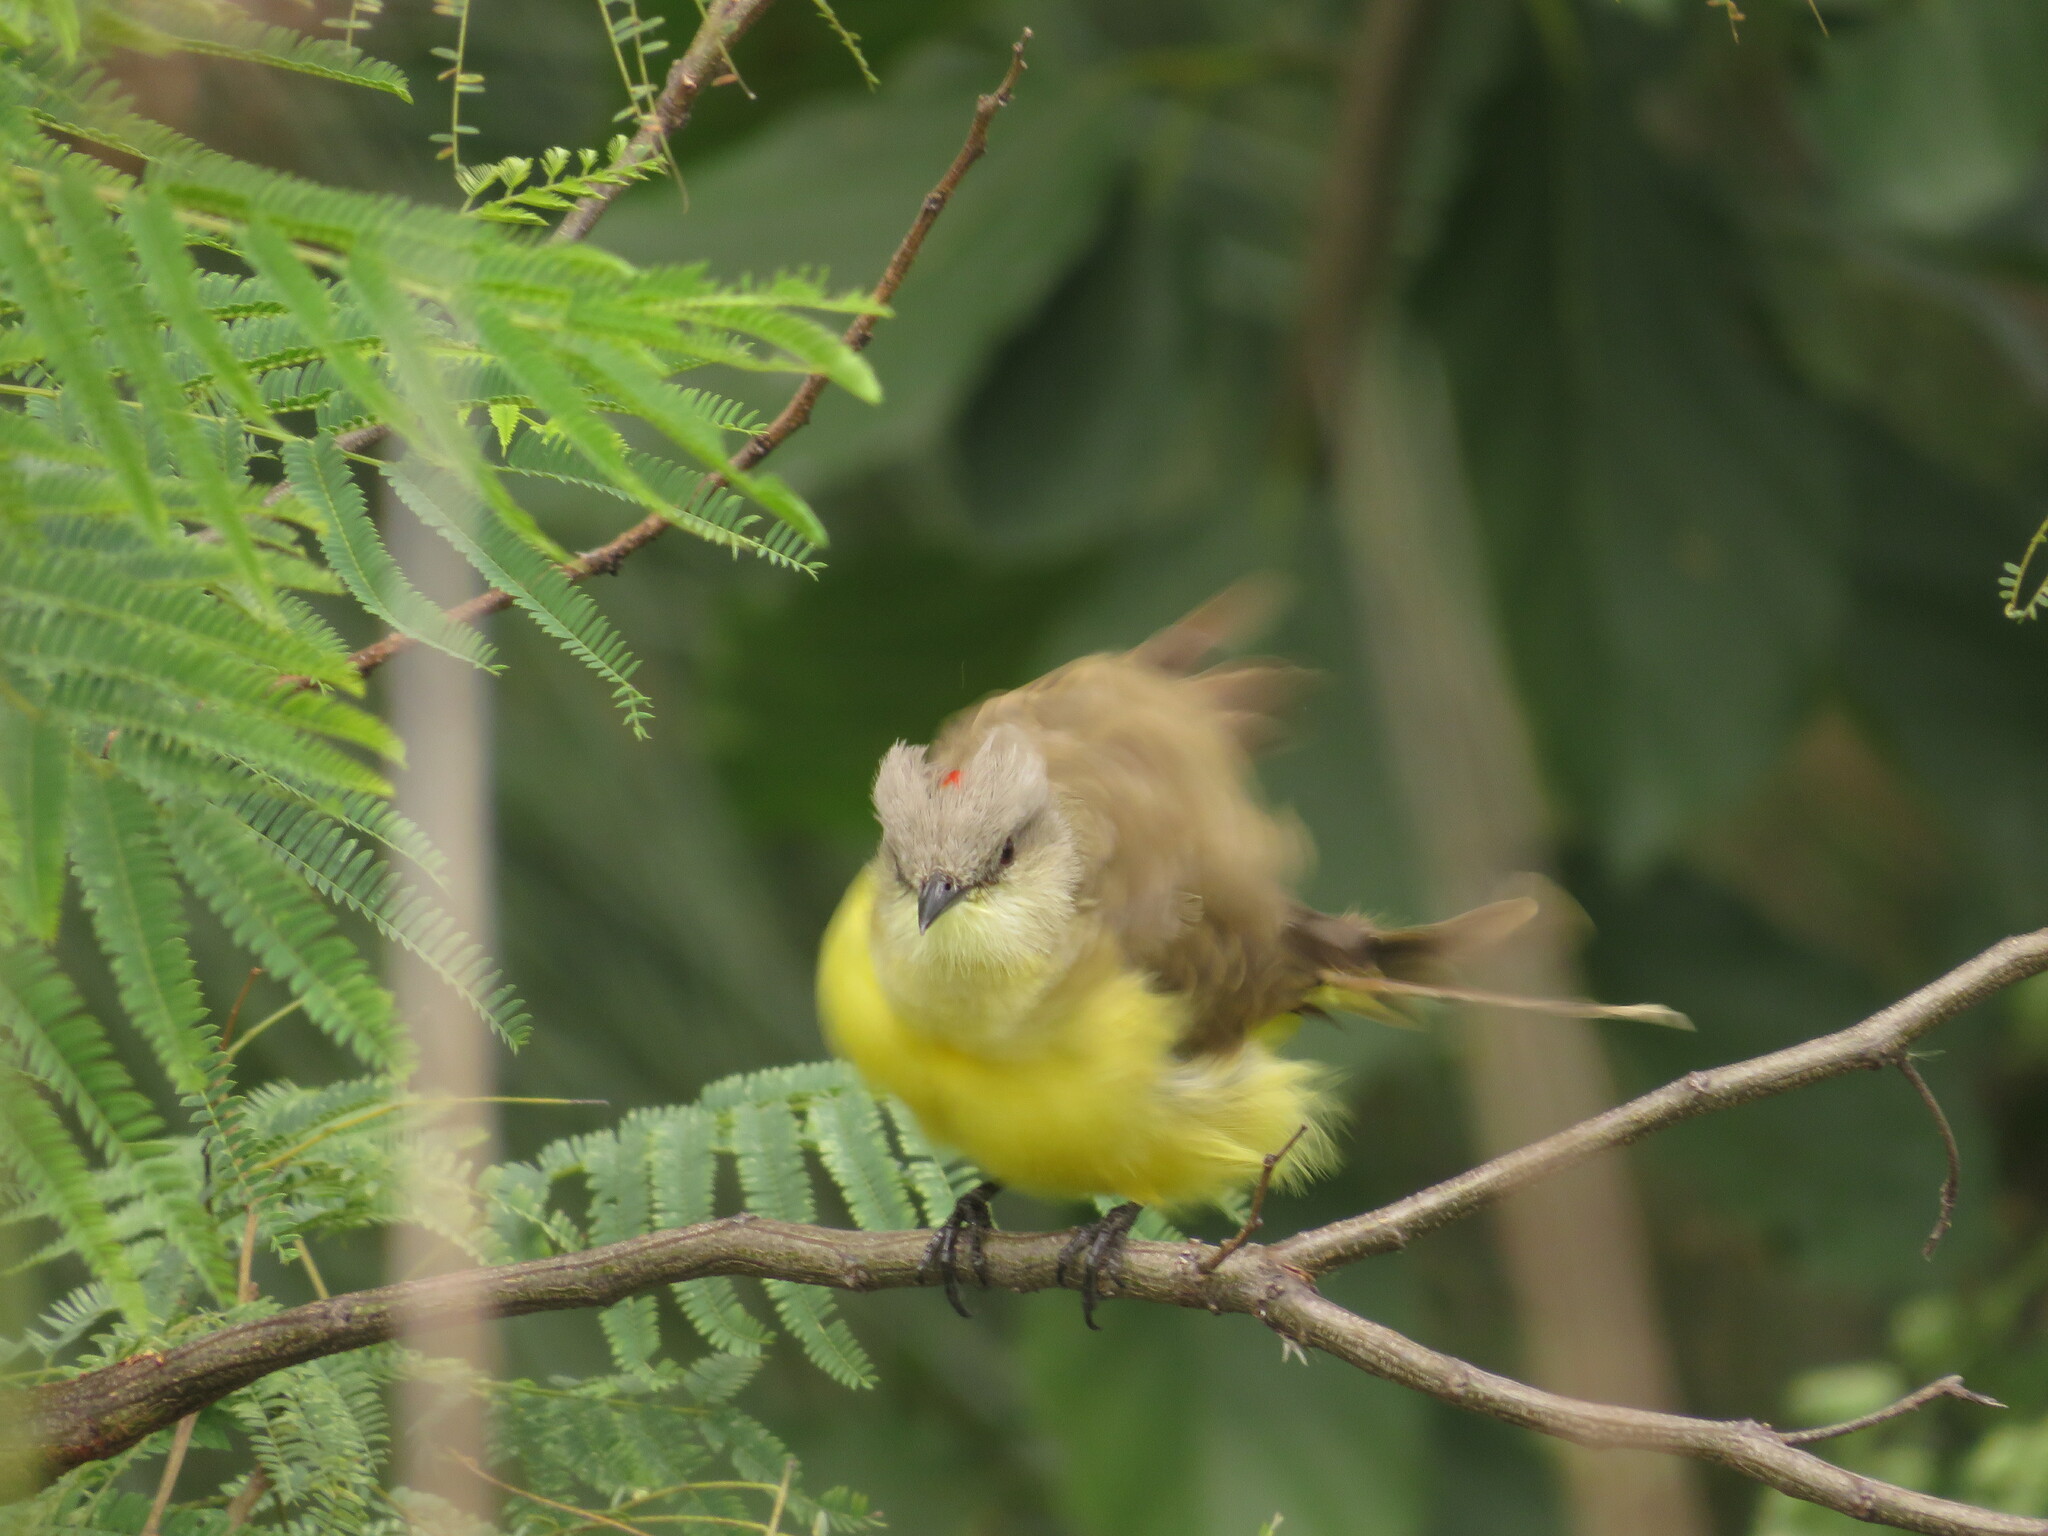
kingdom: Animalia
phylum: Chordata
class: Aves
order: Passeriformes
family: Tyrannidae
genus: Machetornis
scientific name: Machetornis rixosa
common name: Cattle tyrant
